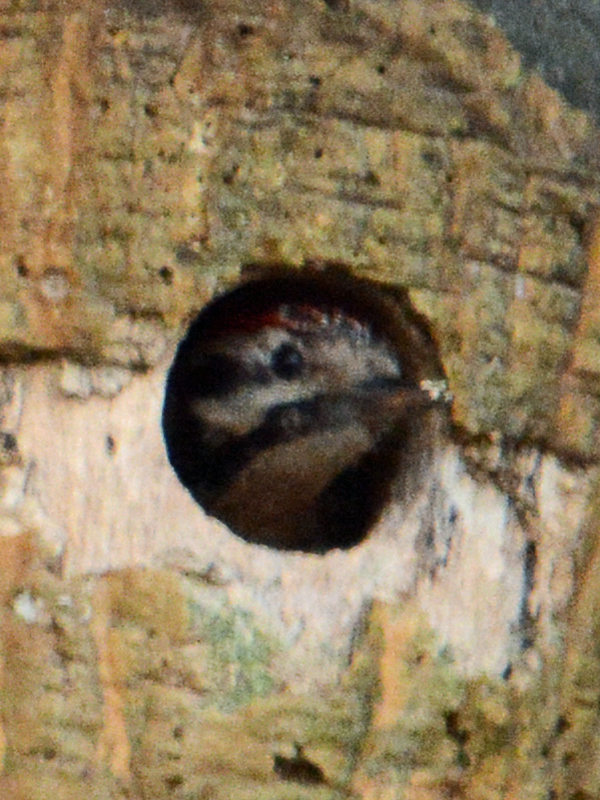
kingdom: Animalia
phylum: Chordata
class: Aves
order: Piciformes
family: Picidae
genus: Dryobates
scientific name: Dryobates scalaris
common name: Ladder-backed woodpecker
